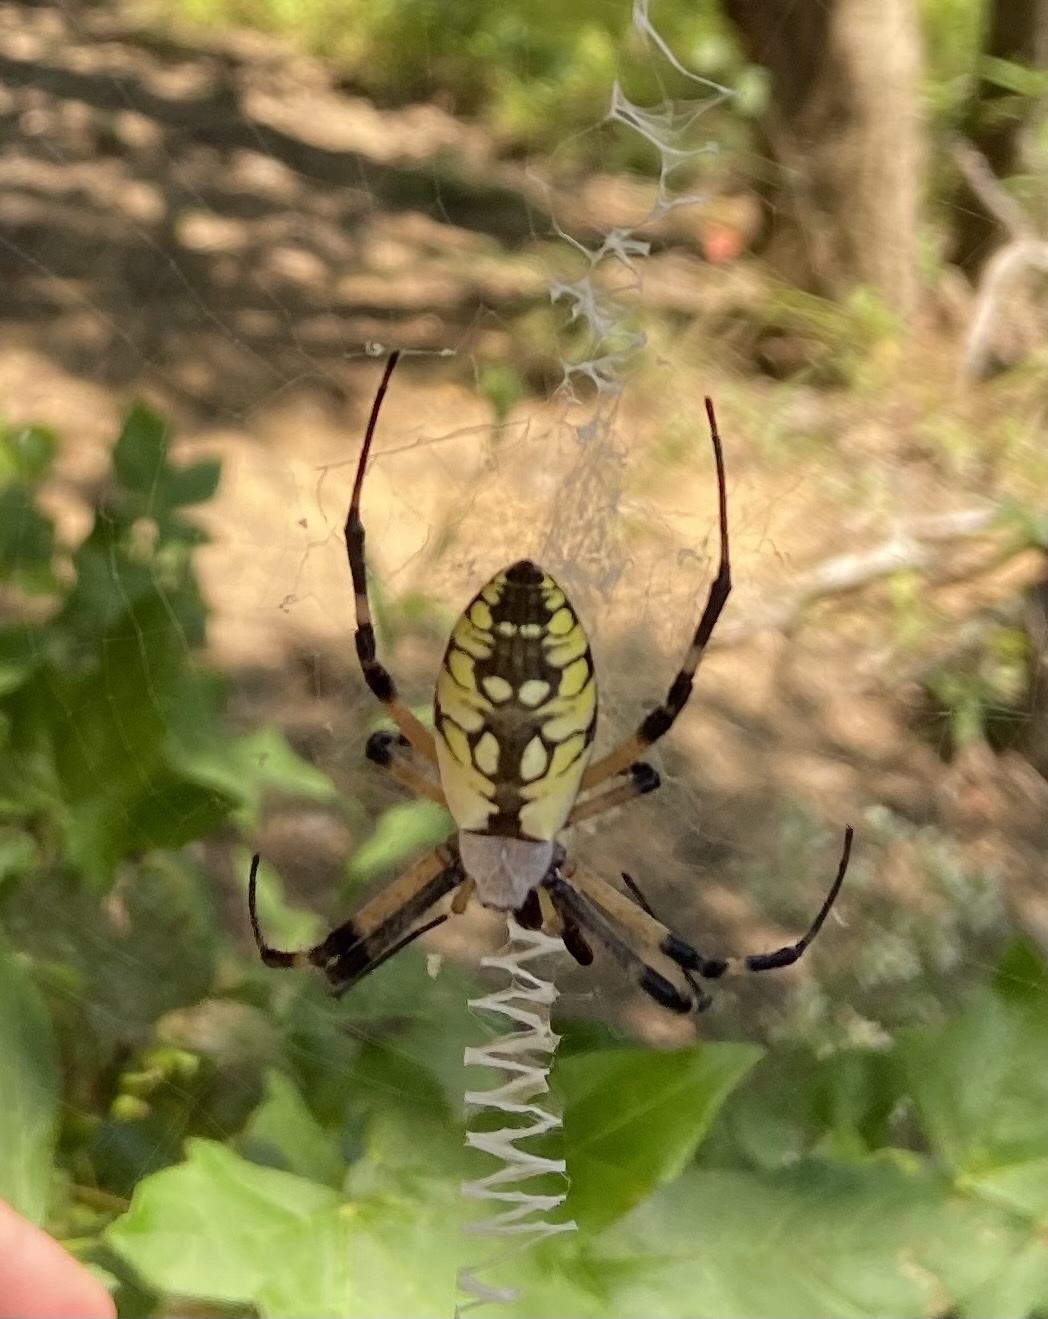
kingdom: Animalia
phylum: Arthropoda
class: Arachnida
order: Araneae
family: Araneidae
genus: Argiope
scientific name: Argiope aurantia
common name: Orb weavers
